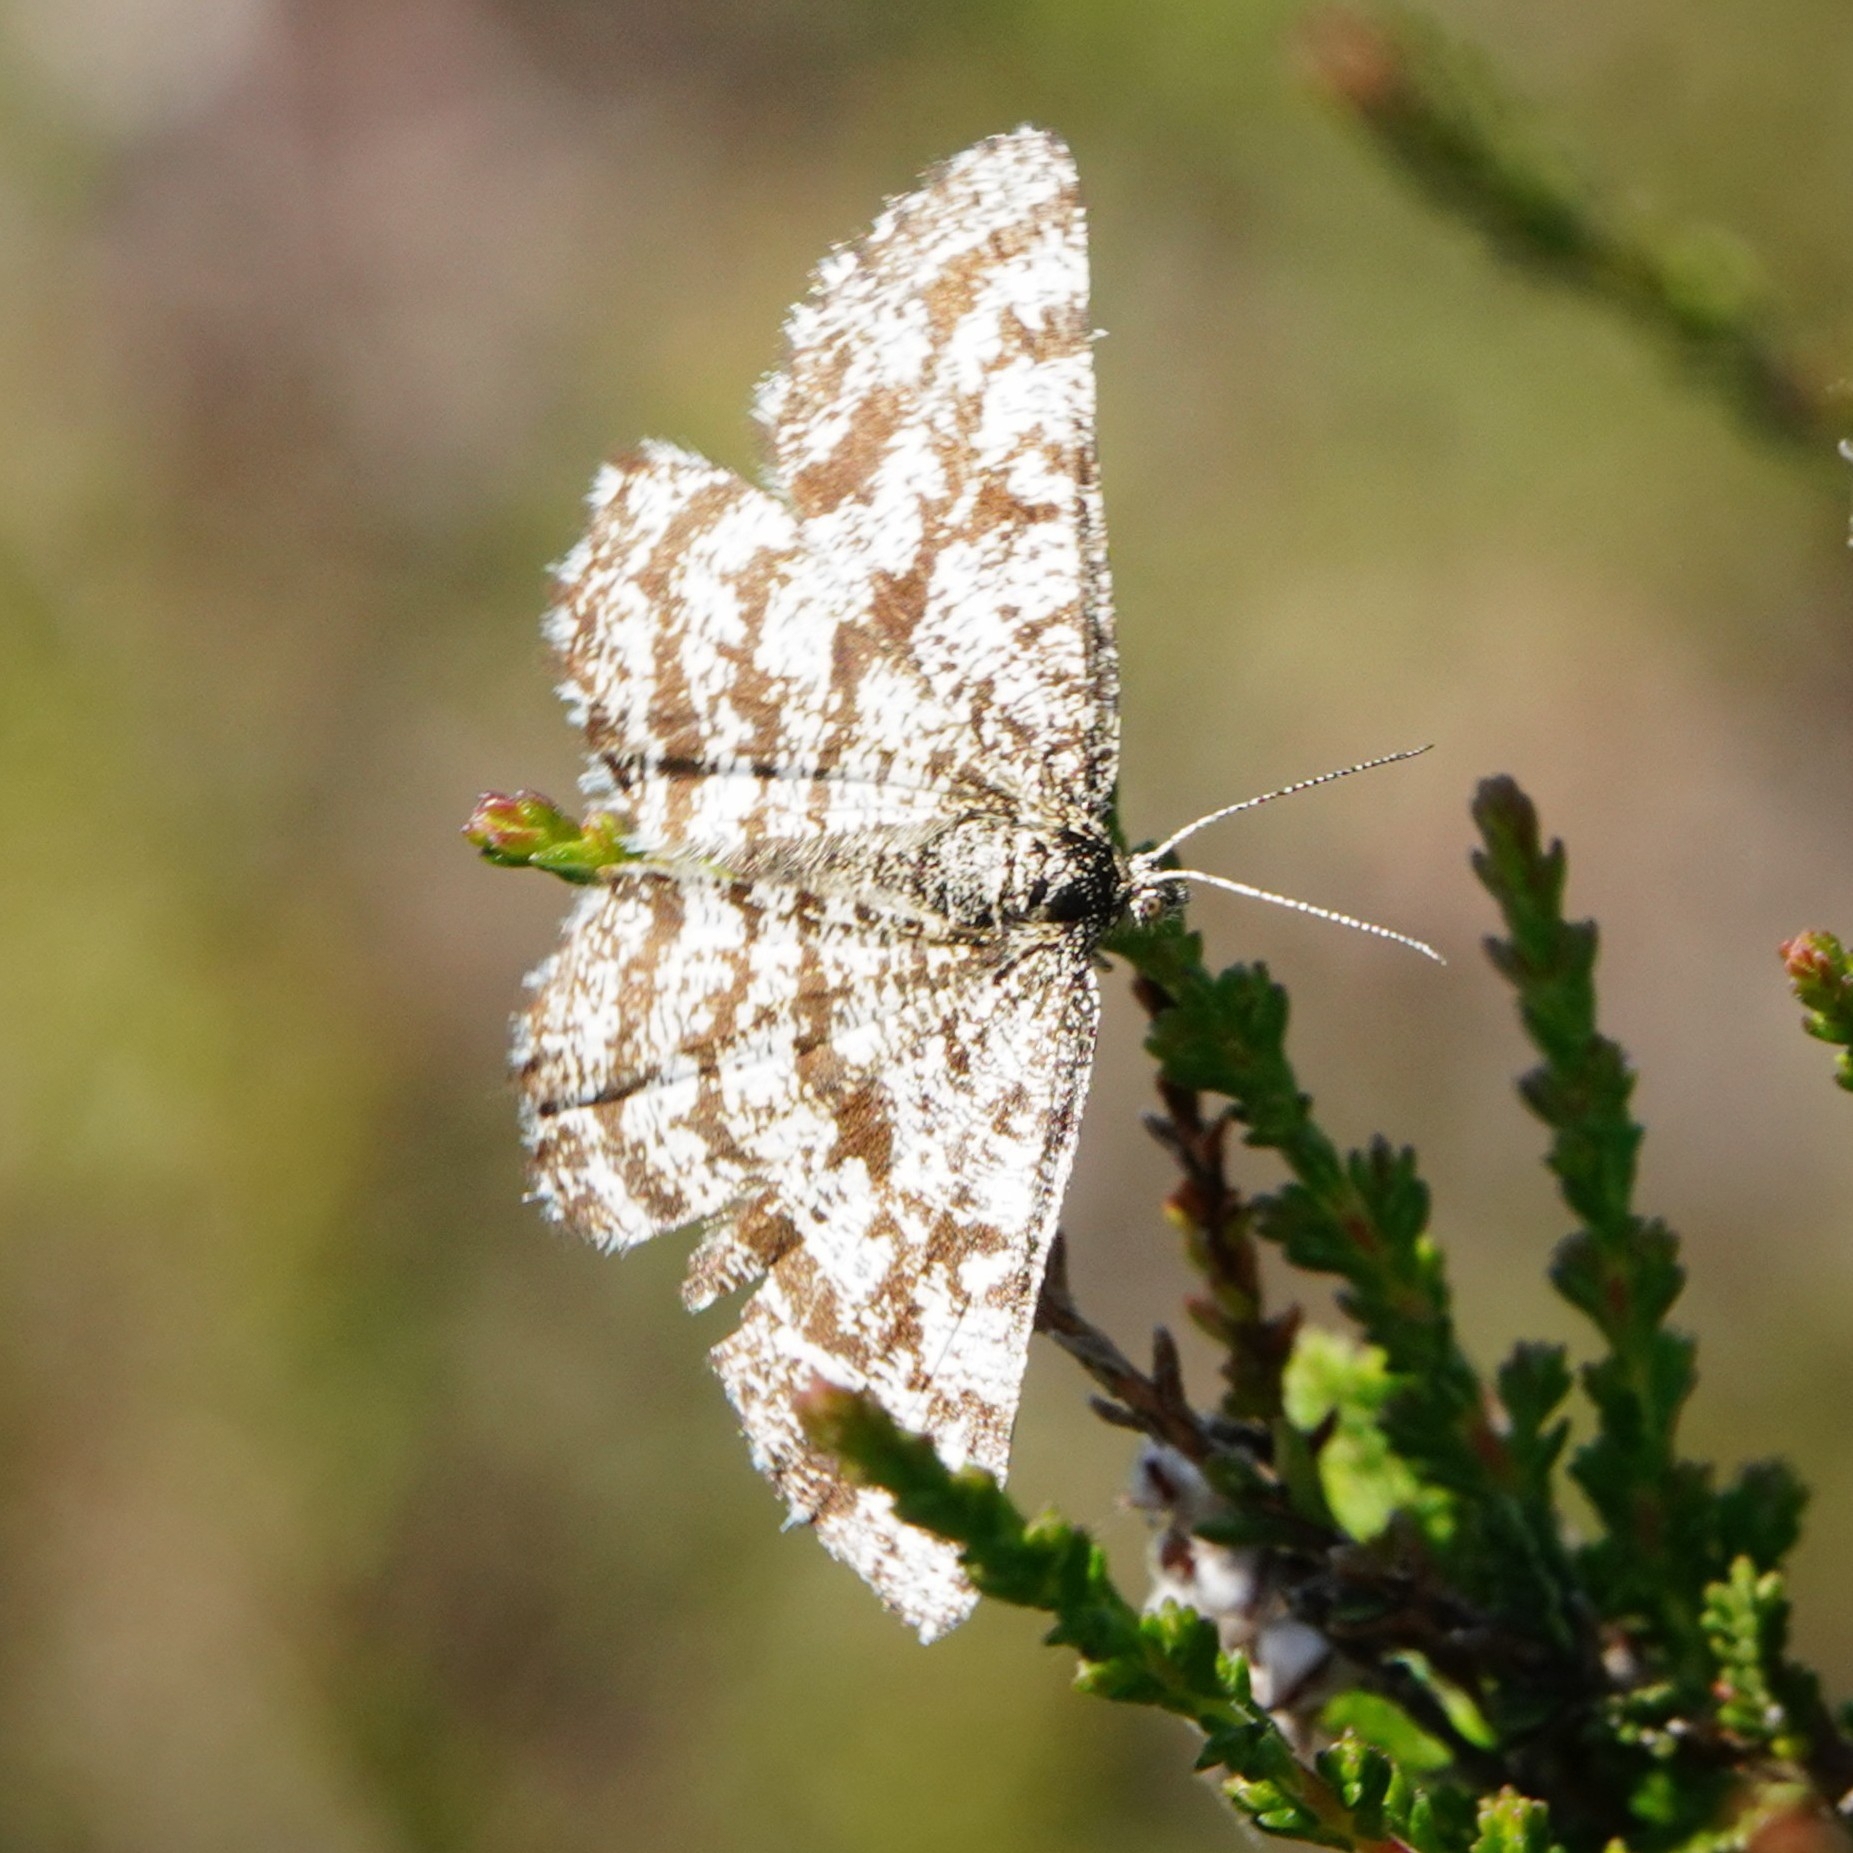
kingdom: Animalia
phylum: Arthropoda
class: Insecta
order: Lepidoptera
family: Geometridae
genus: Ematurga
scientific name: Ematurga atomaria
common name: Common heath
